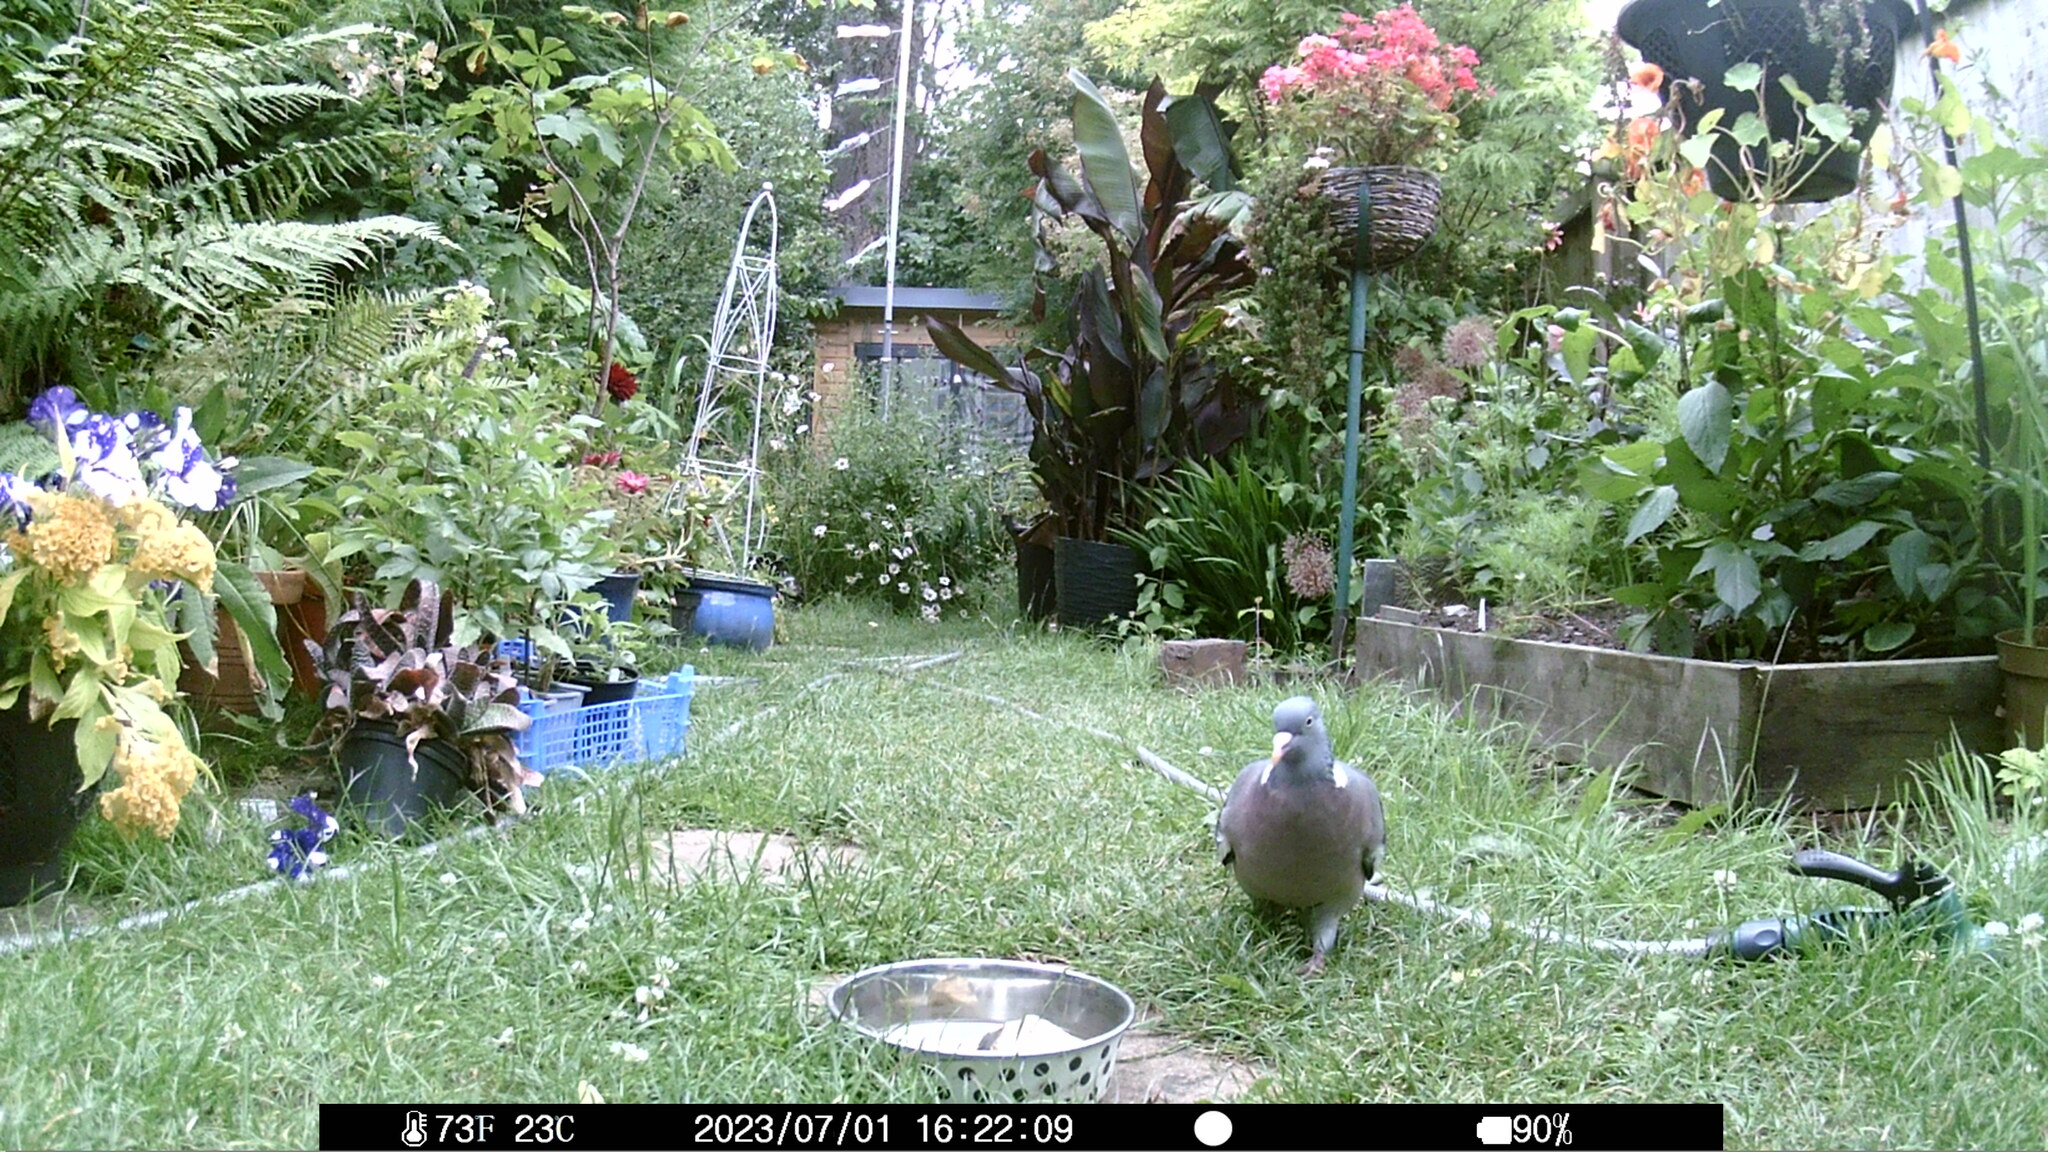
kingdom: Animalia
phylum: Chordata
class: Aves
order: Columbiformes
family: Columbidae
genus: Columba
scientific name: Columba palumbus
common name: Common wood pigeon
